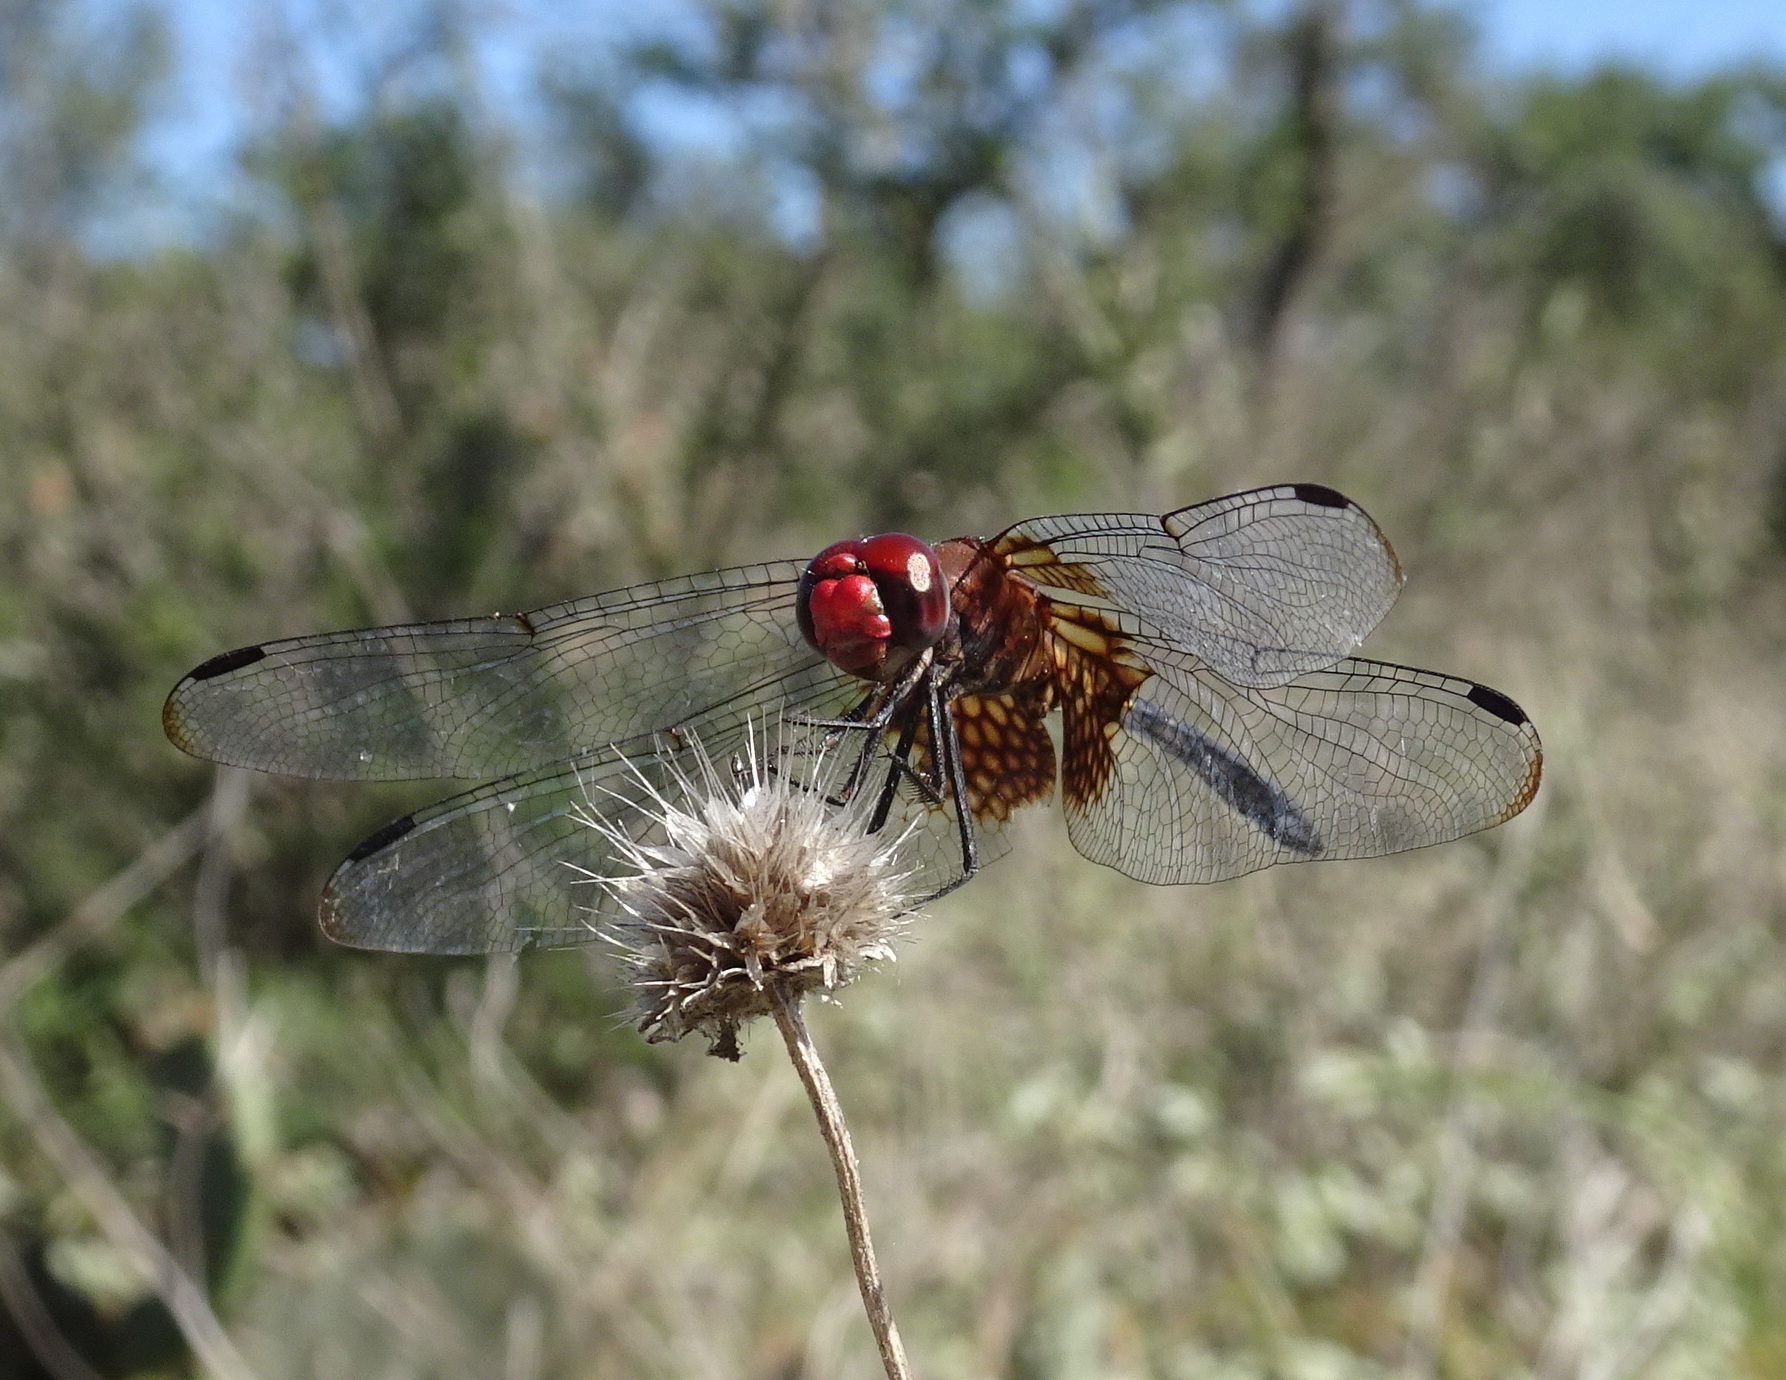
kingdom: Animalia
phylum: Arthropoda
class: Insecta
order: Odonata
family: Libellulidae
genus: Dythemis
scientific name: Dythemis fugax
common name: Checkered setwing
